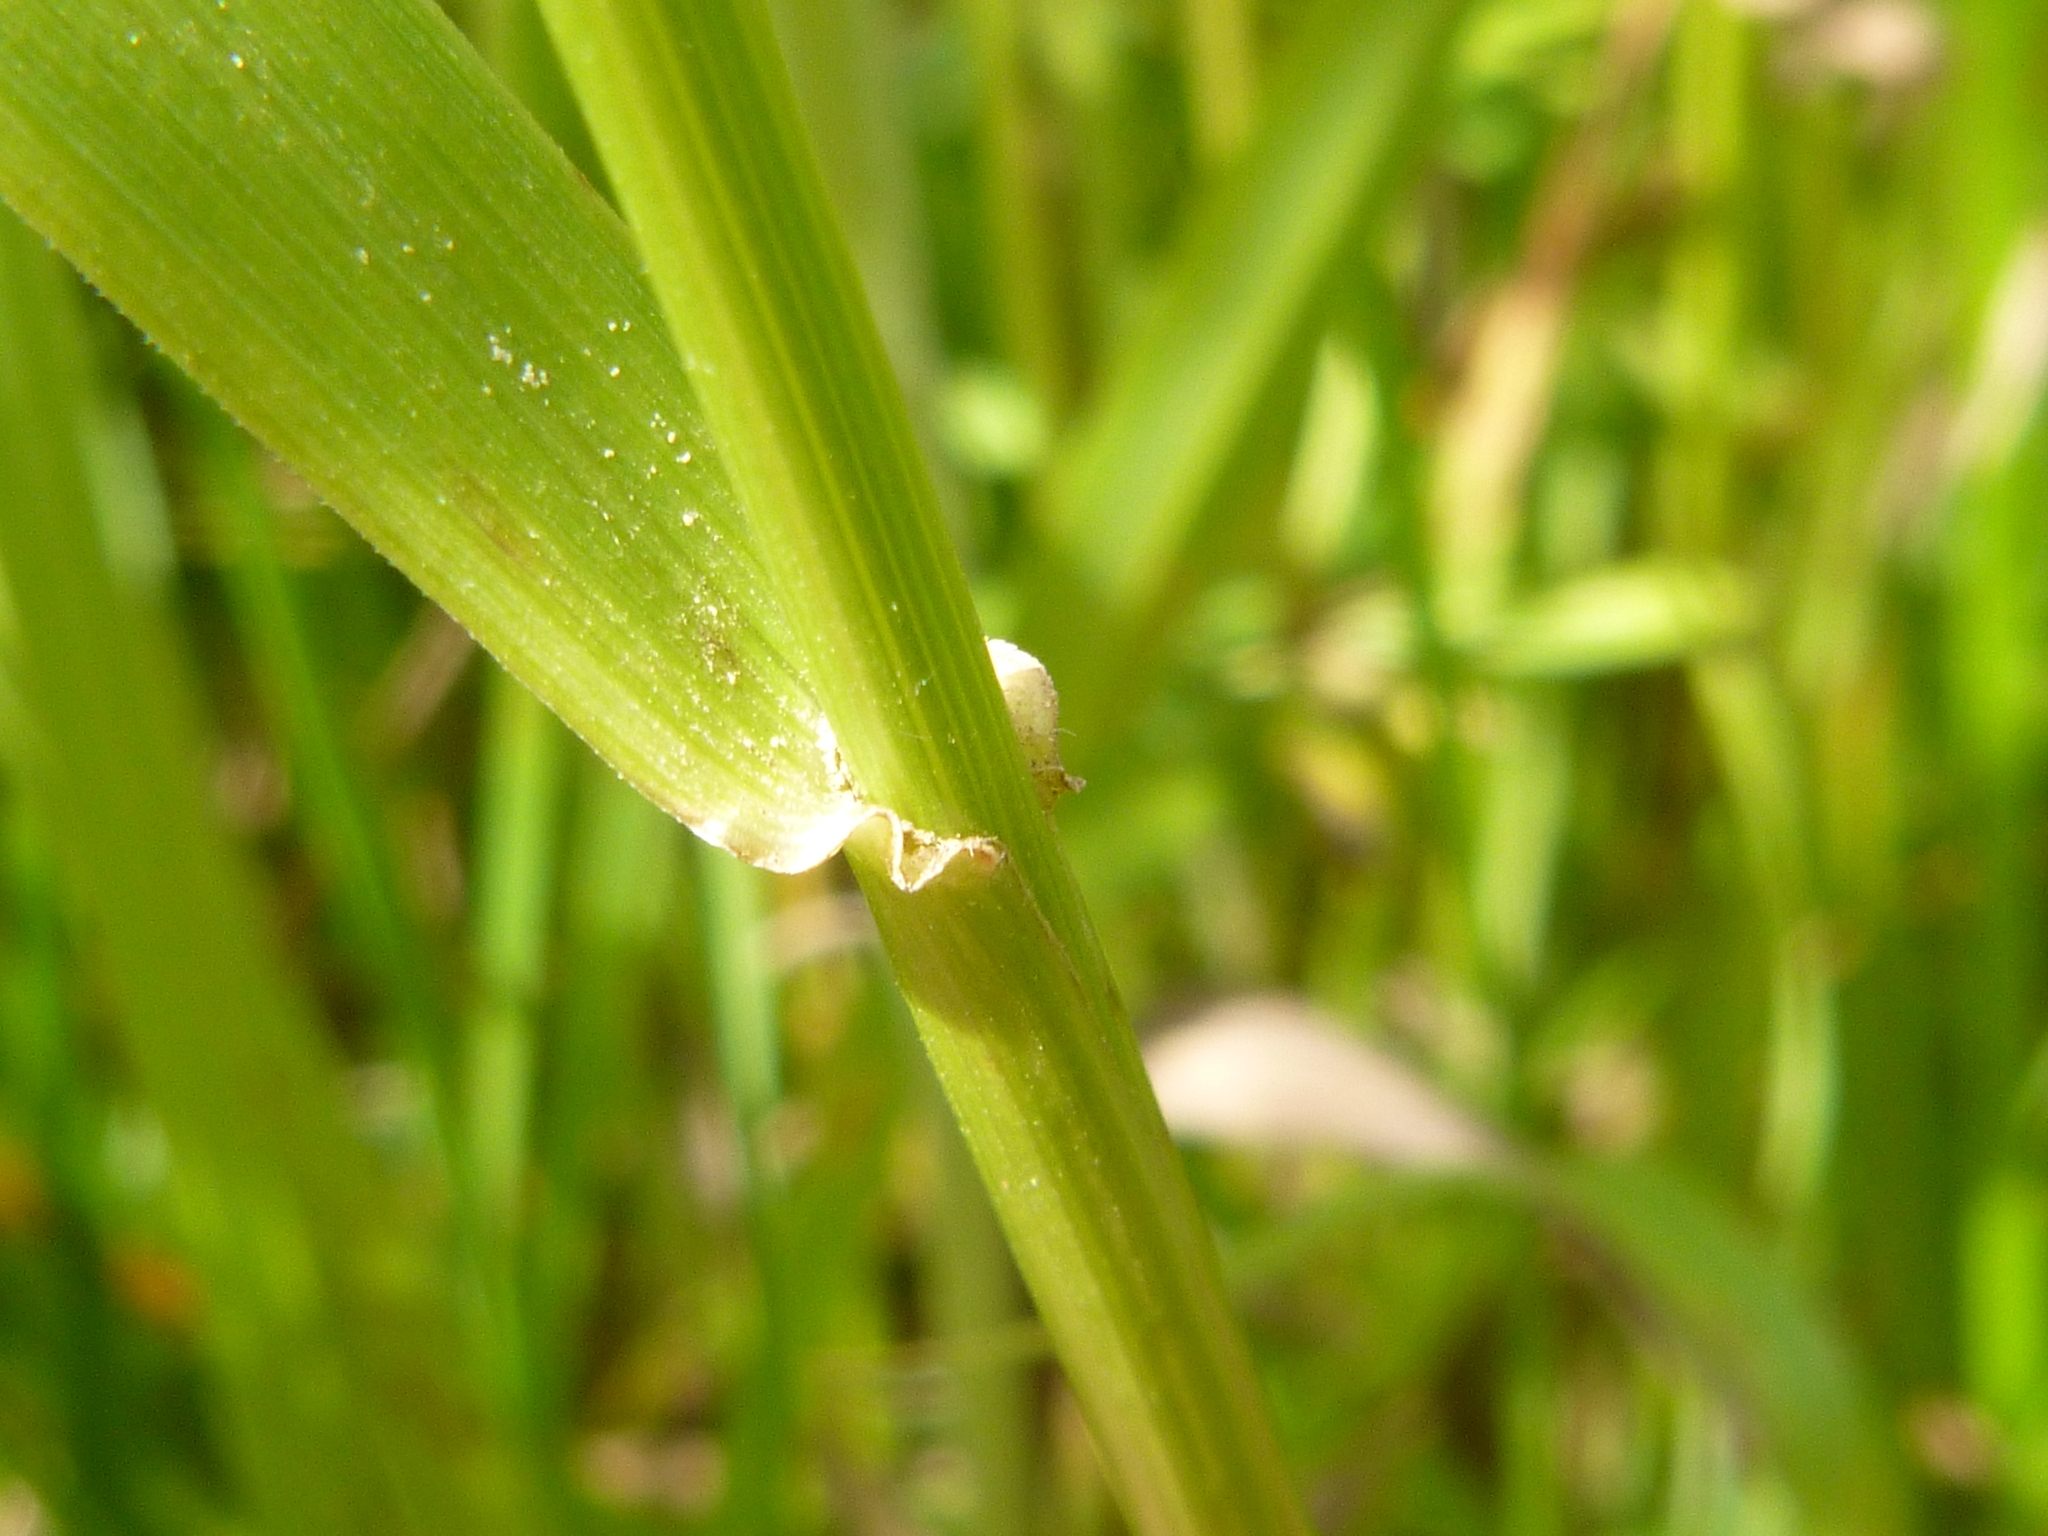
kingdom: Plantae
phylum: Tracheophyta
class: Liliopsida
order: Poales
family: Poaceae
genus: Lolium
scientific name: Lolium arundinaceum
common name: Reed fescue
